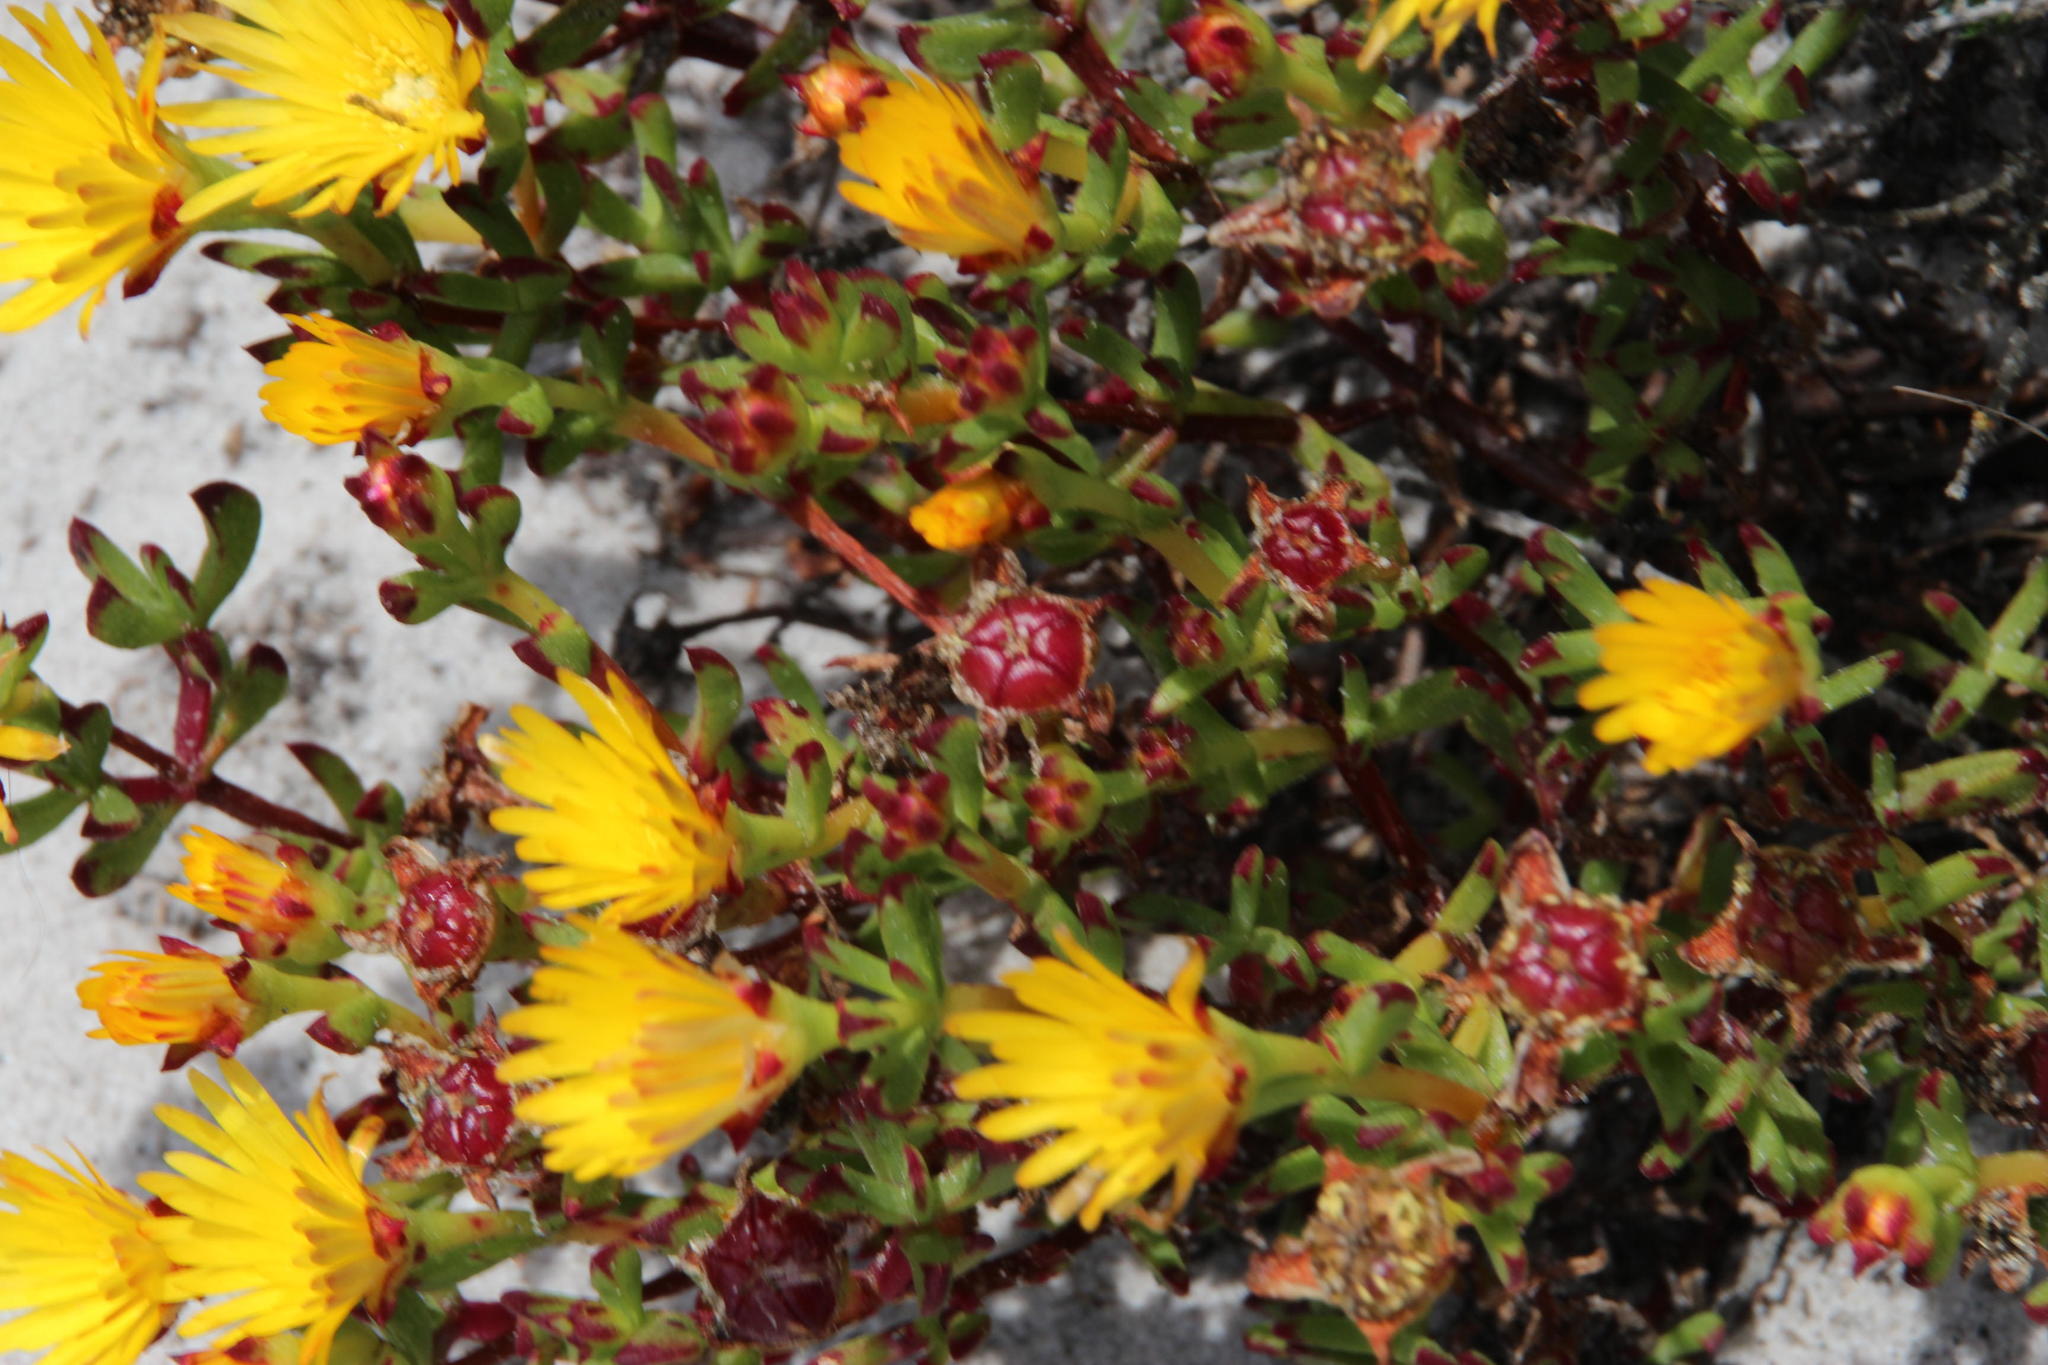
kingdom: Plantae
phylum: Tracheophyta
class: Magnoliopsida
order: Caryophyllales
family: Aizoaceae
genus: Lampranthus
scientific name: Lampranthus promontorii
